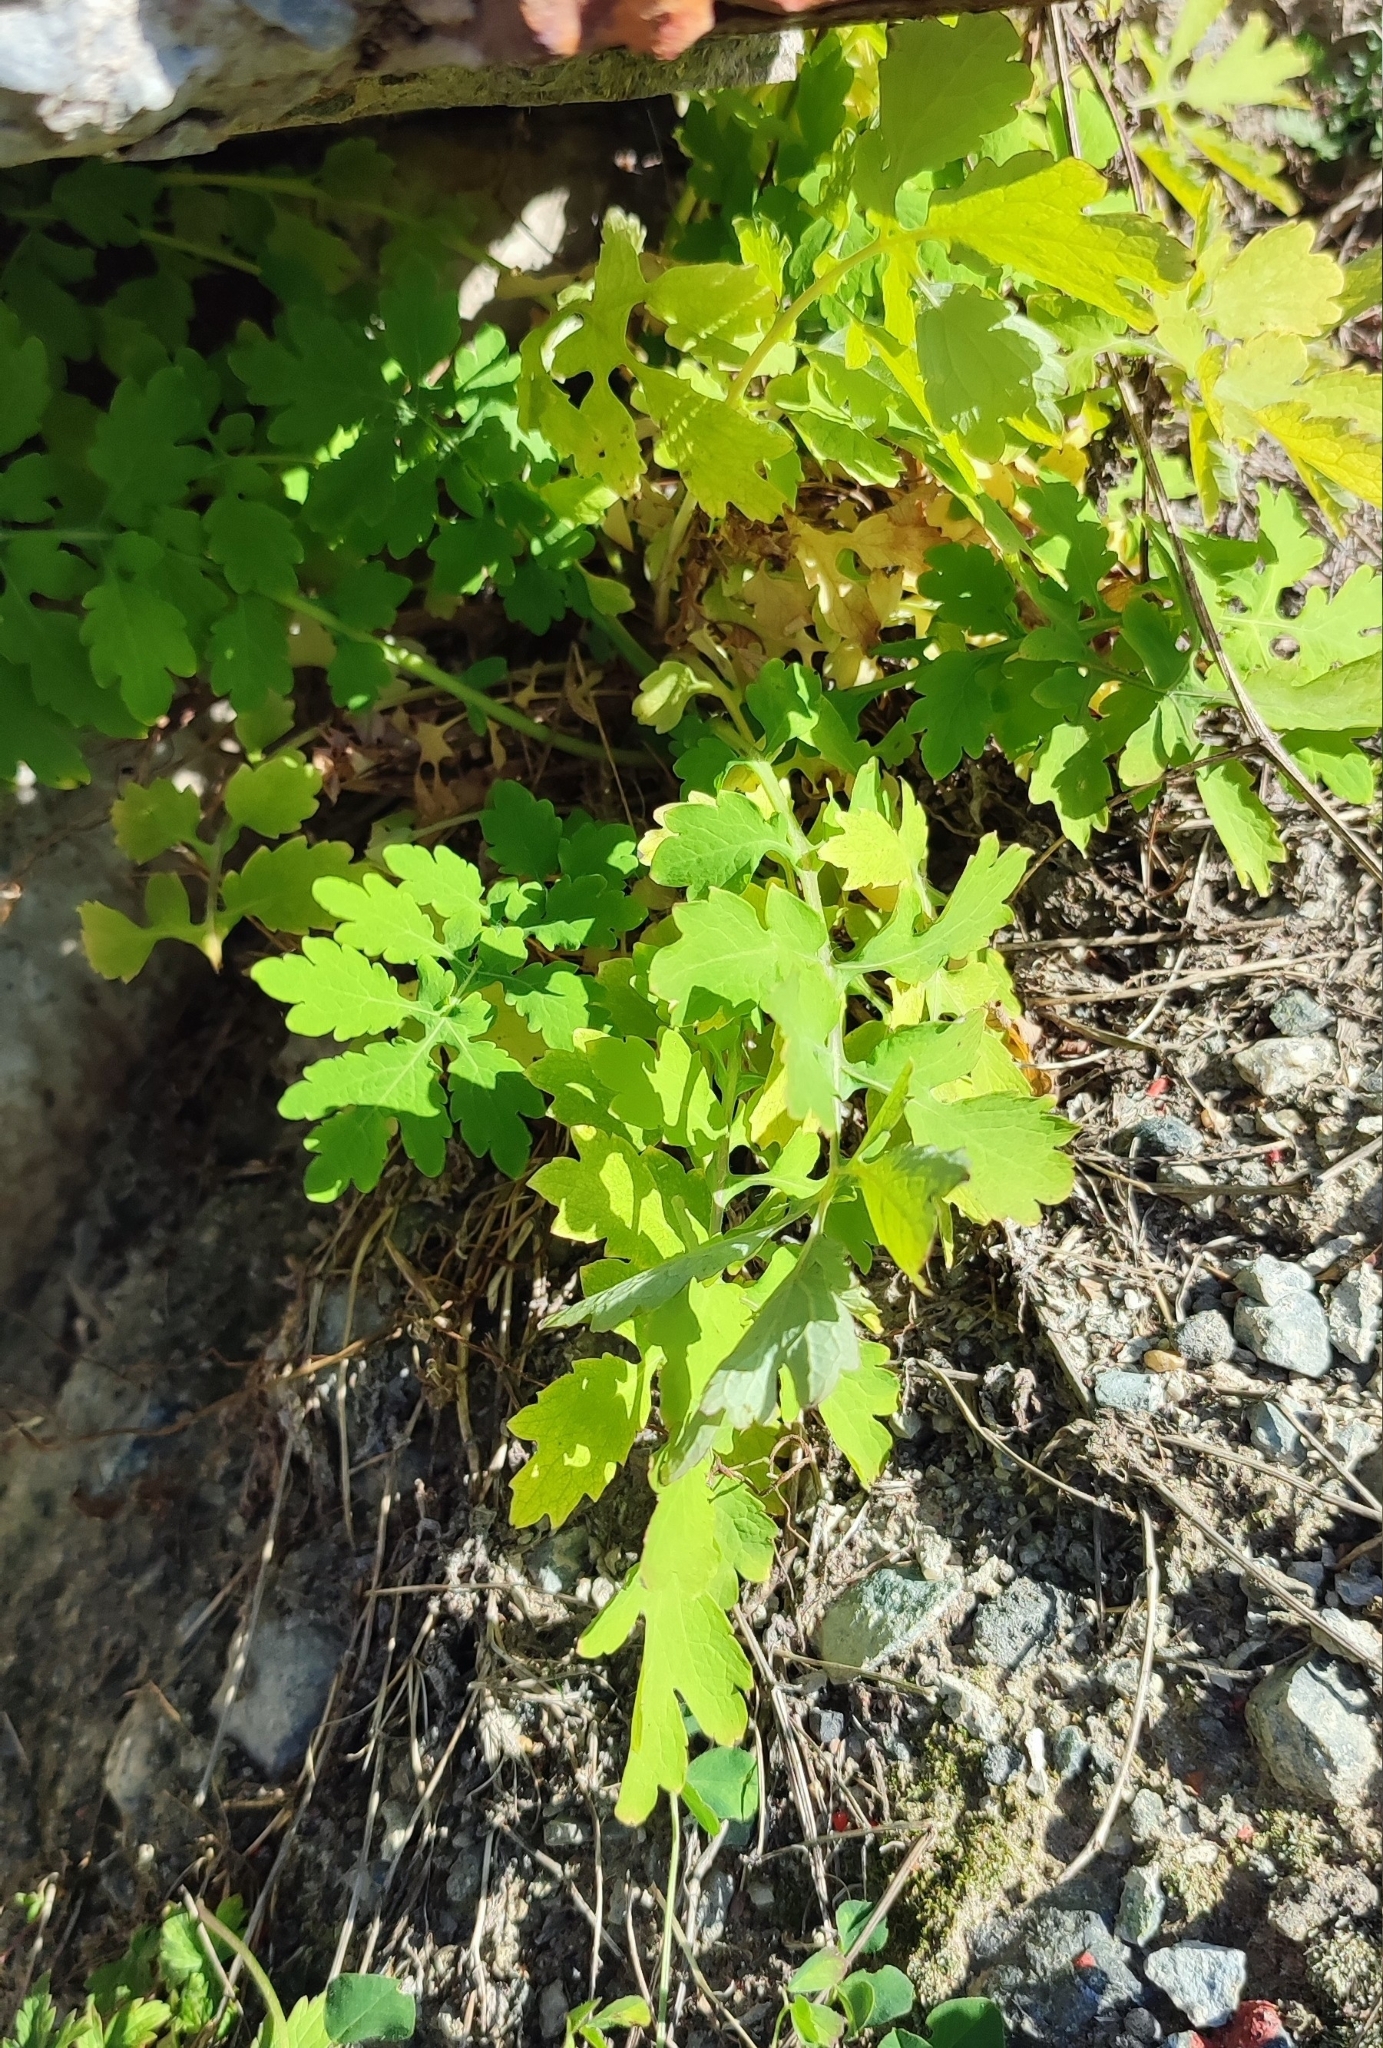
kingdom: Plantae
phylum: Tracheophyta
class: Magnoliopsida
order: Ranunculales
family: Papaveraceae
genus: Chelidonium
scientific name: Chelidonium majus
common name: Greater celandine
